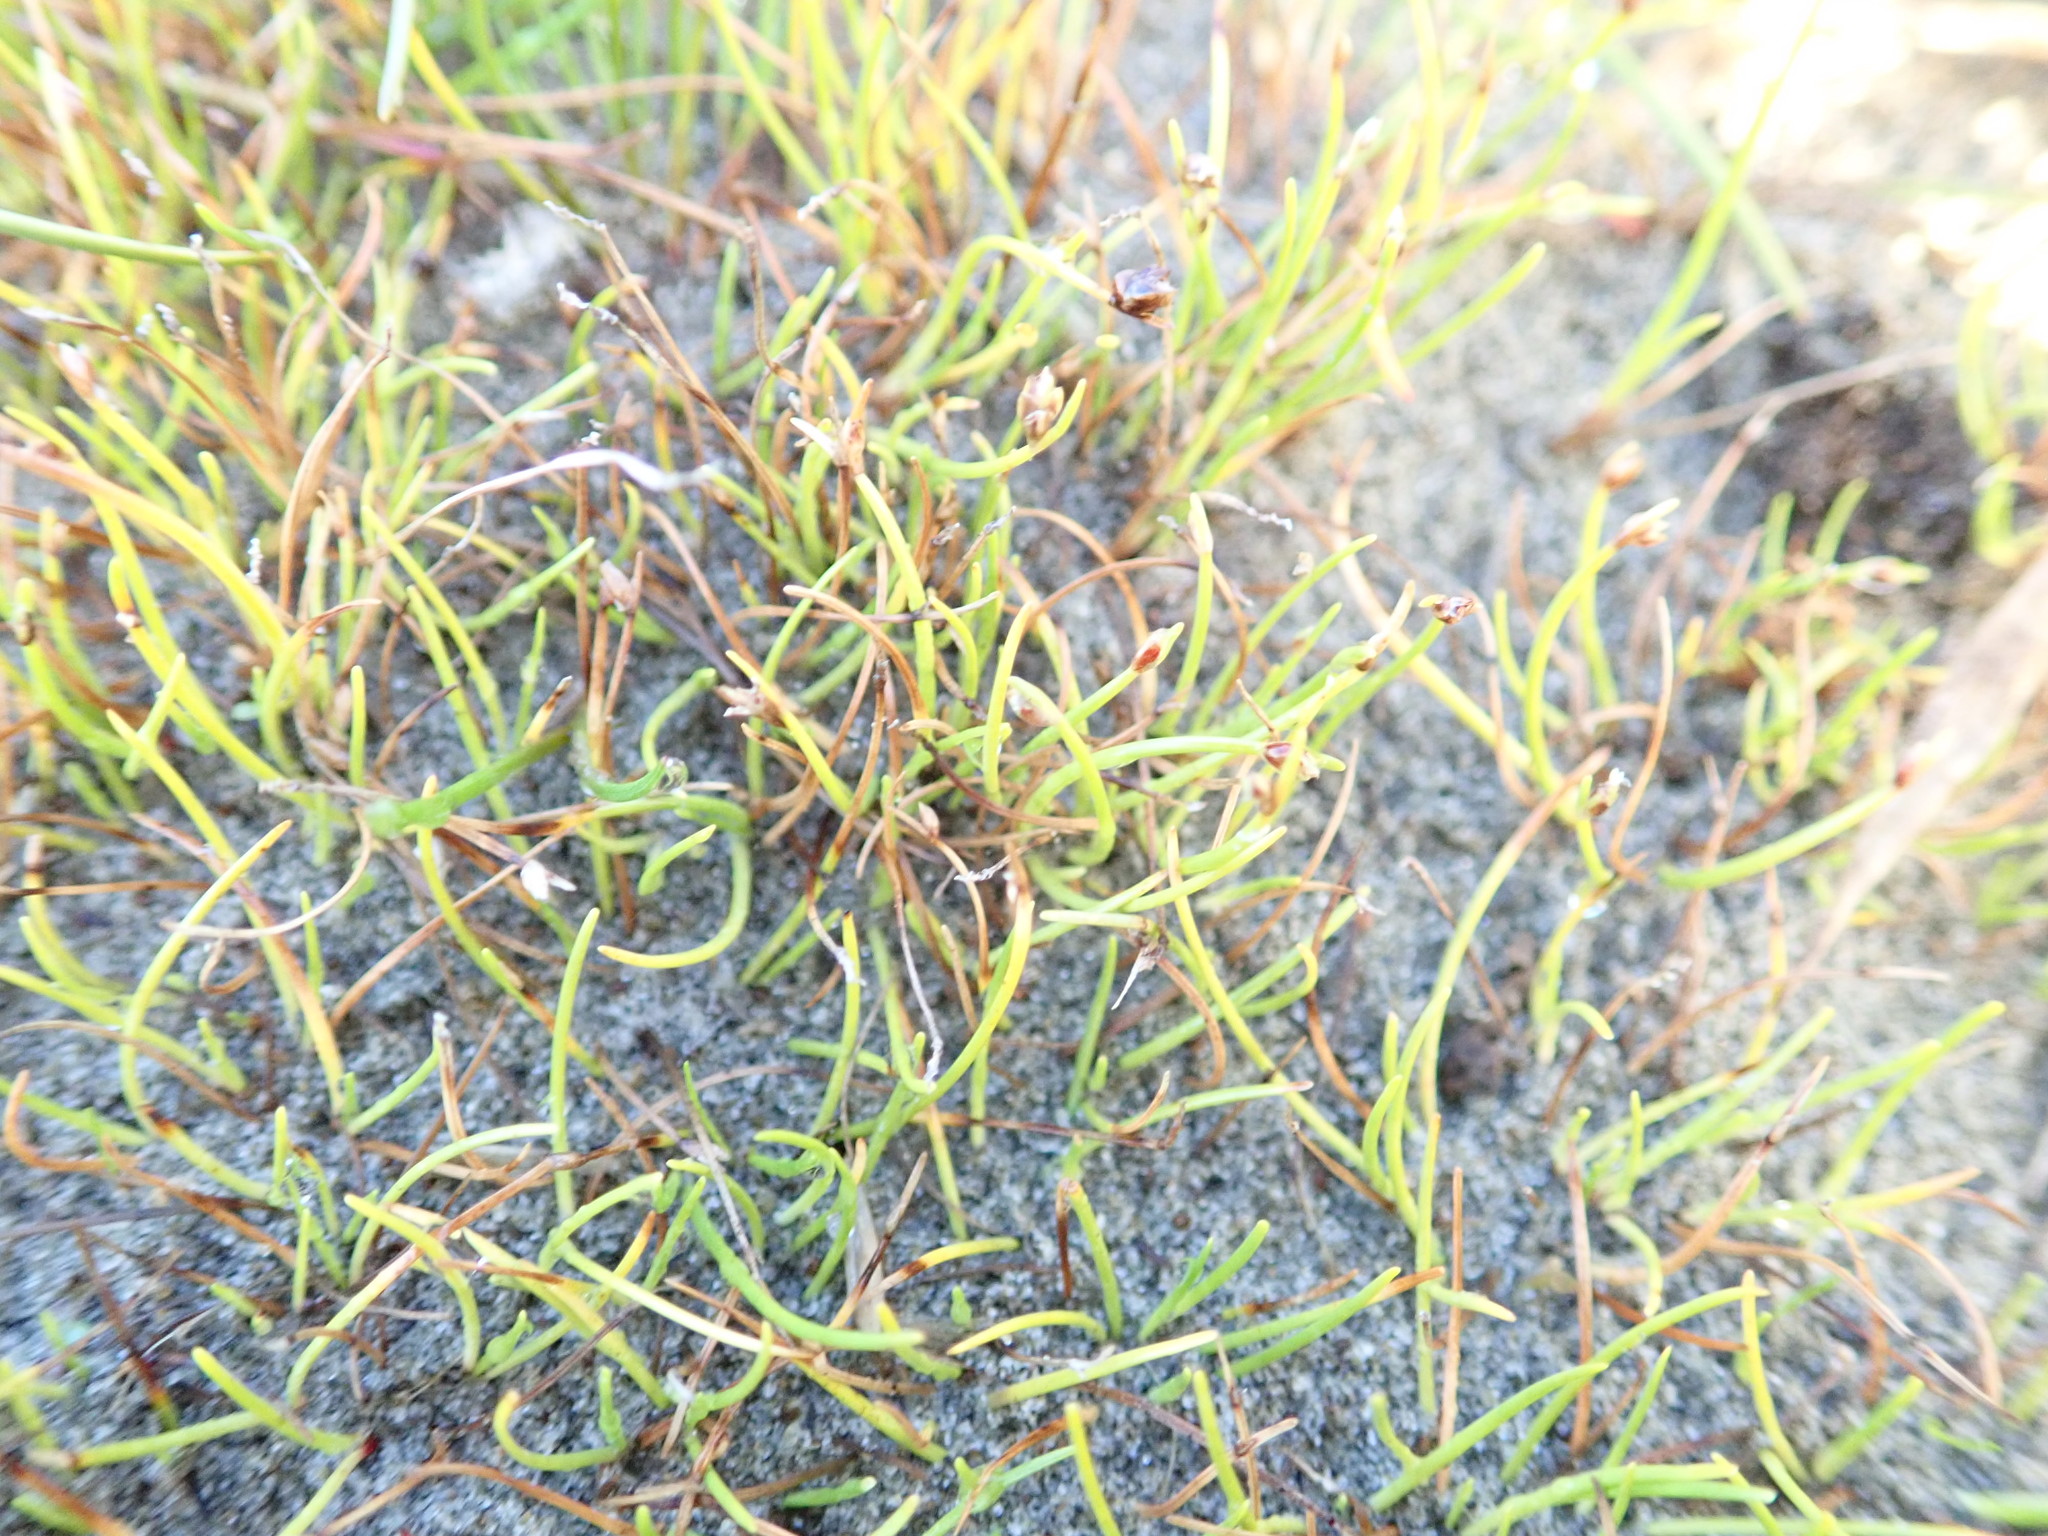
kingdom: Plantae
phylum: Tracheophyta
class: Liliopsida
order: Alismatales
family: Juncaginaceae
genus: Triglochin
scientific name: Triglochin striata
